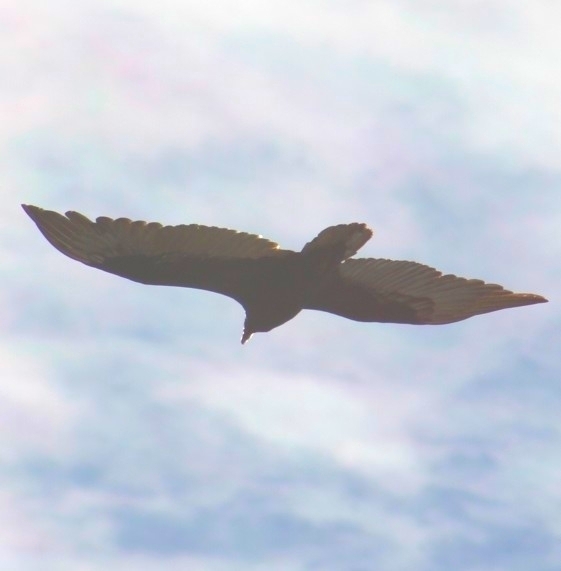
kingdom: Animalia
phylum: Chordata
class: Aves
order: Accipitriformes
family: Cathartidae
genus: Cathartes
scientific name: Cathartes aura
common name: Turkey vulture
